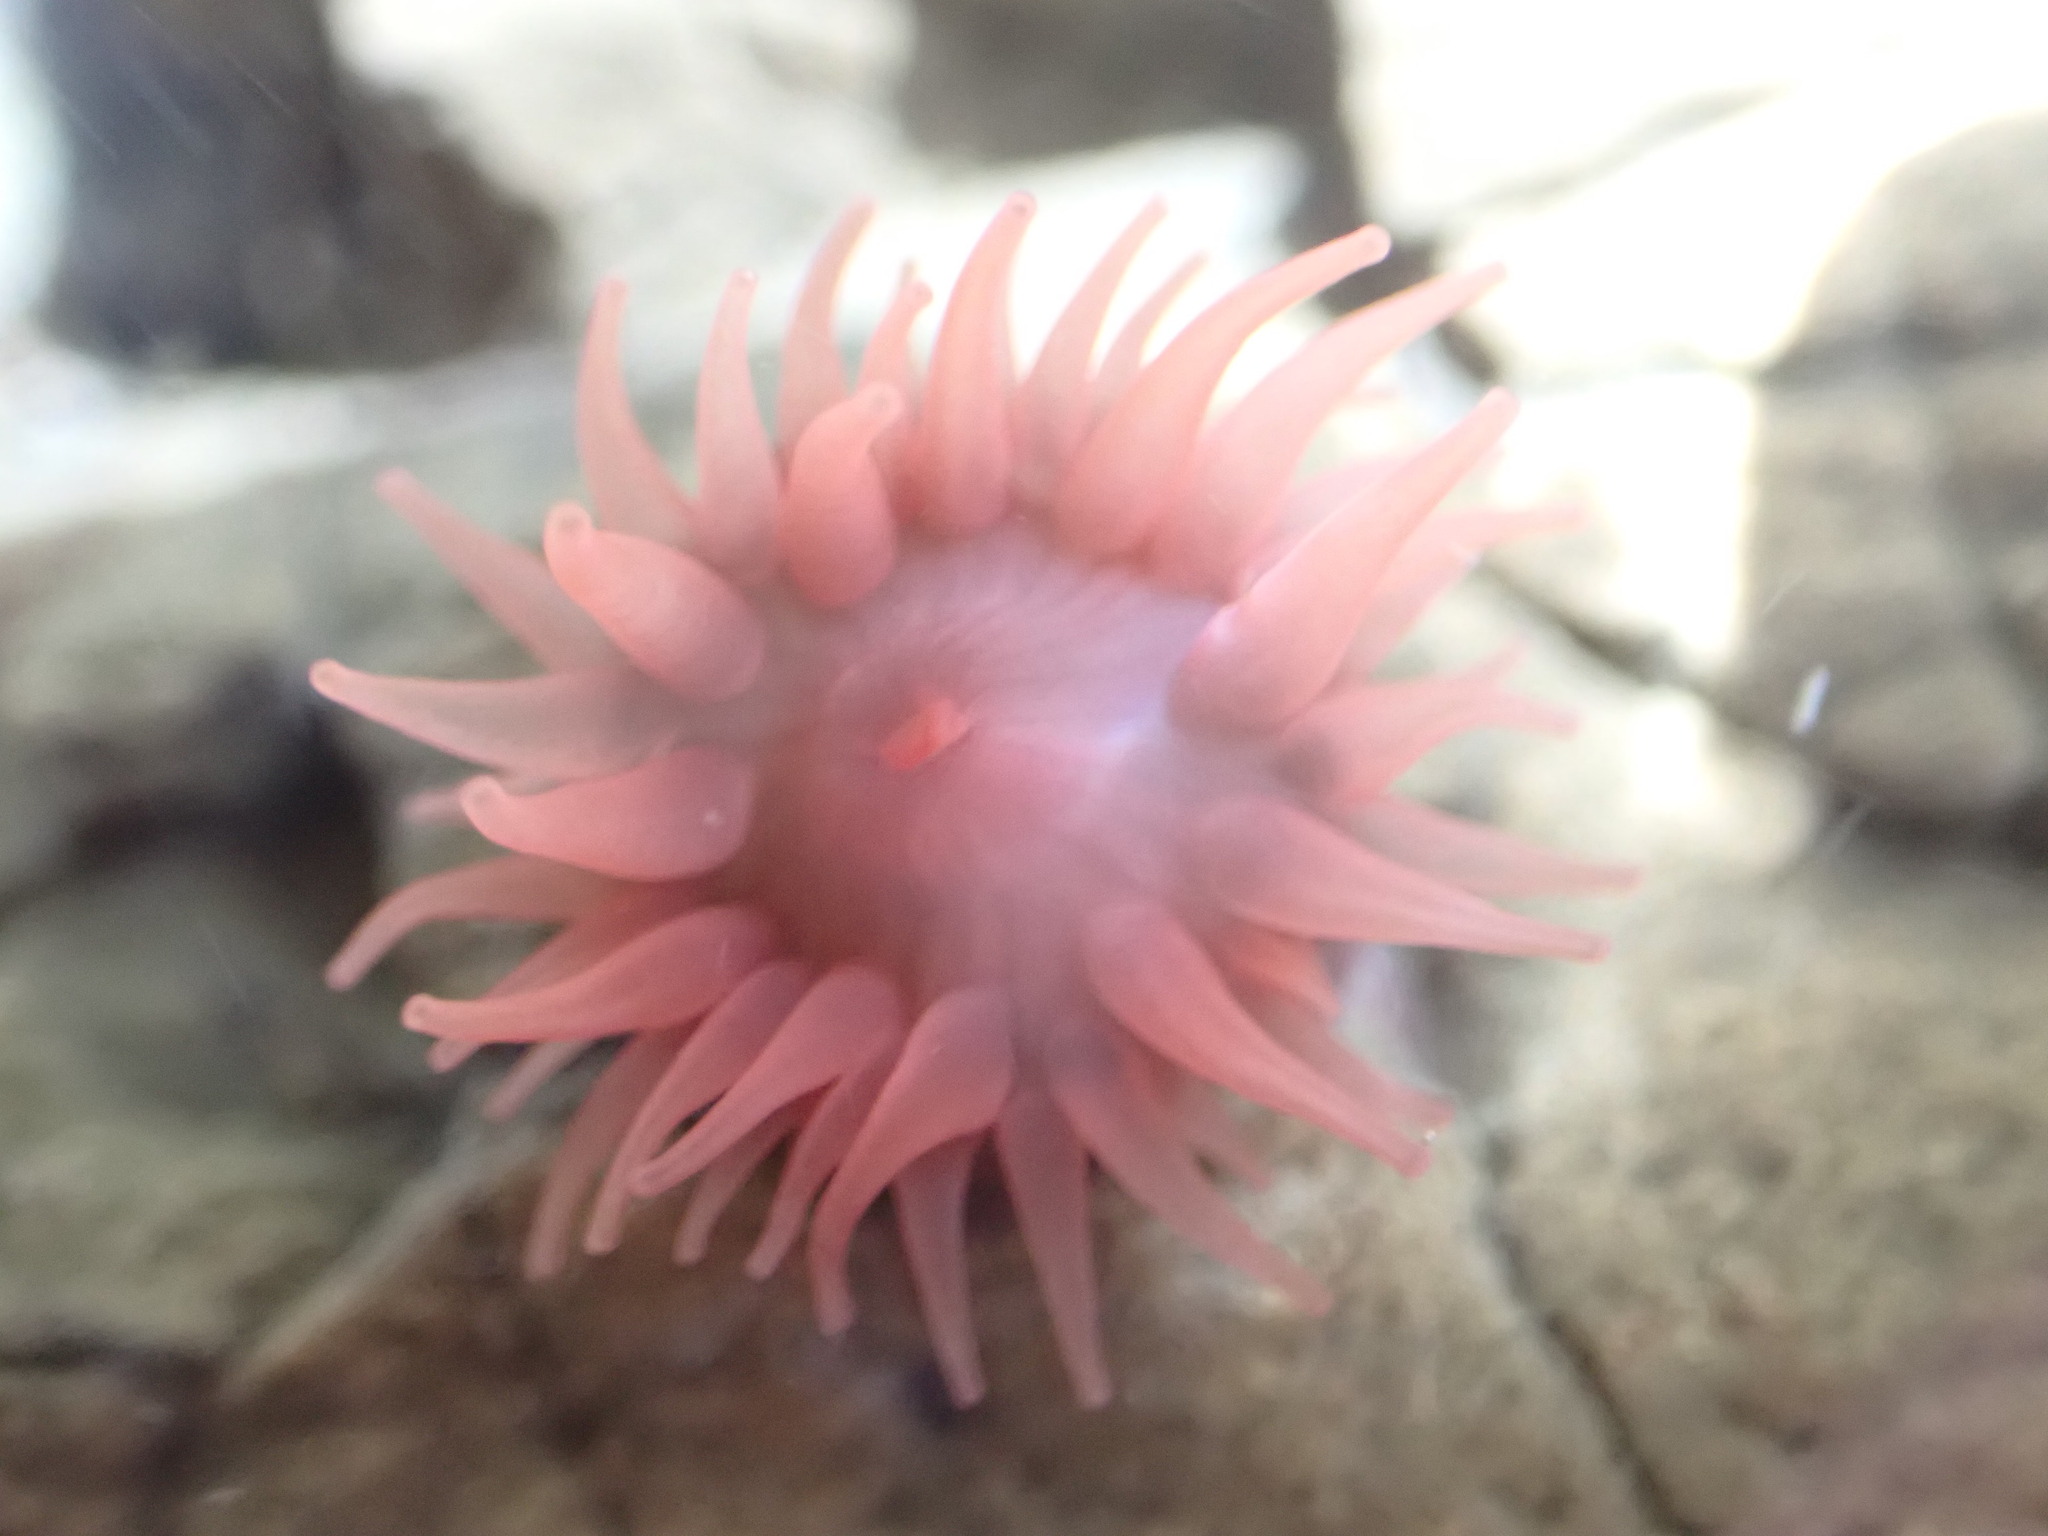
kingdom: Animalia
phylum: Cnidaria
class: Anthozoa
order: Actiniaria
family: Actiniidae
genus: Actinia
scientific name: Actinia tenebrosa
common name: Waratah anemone
